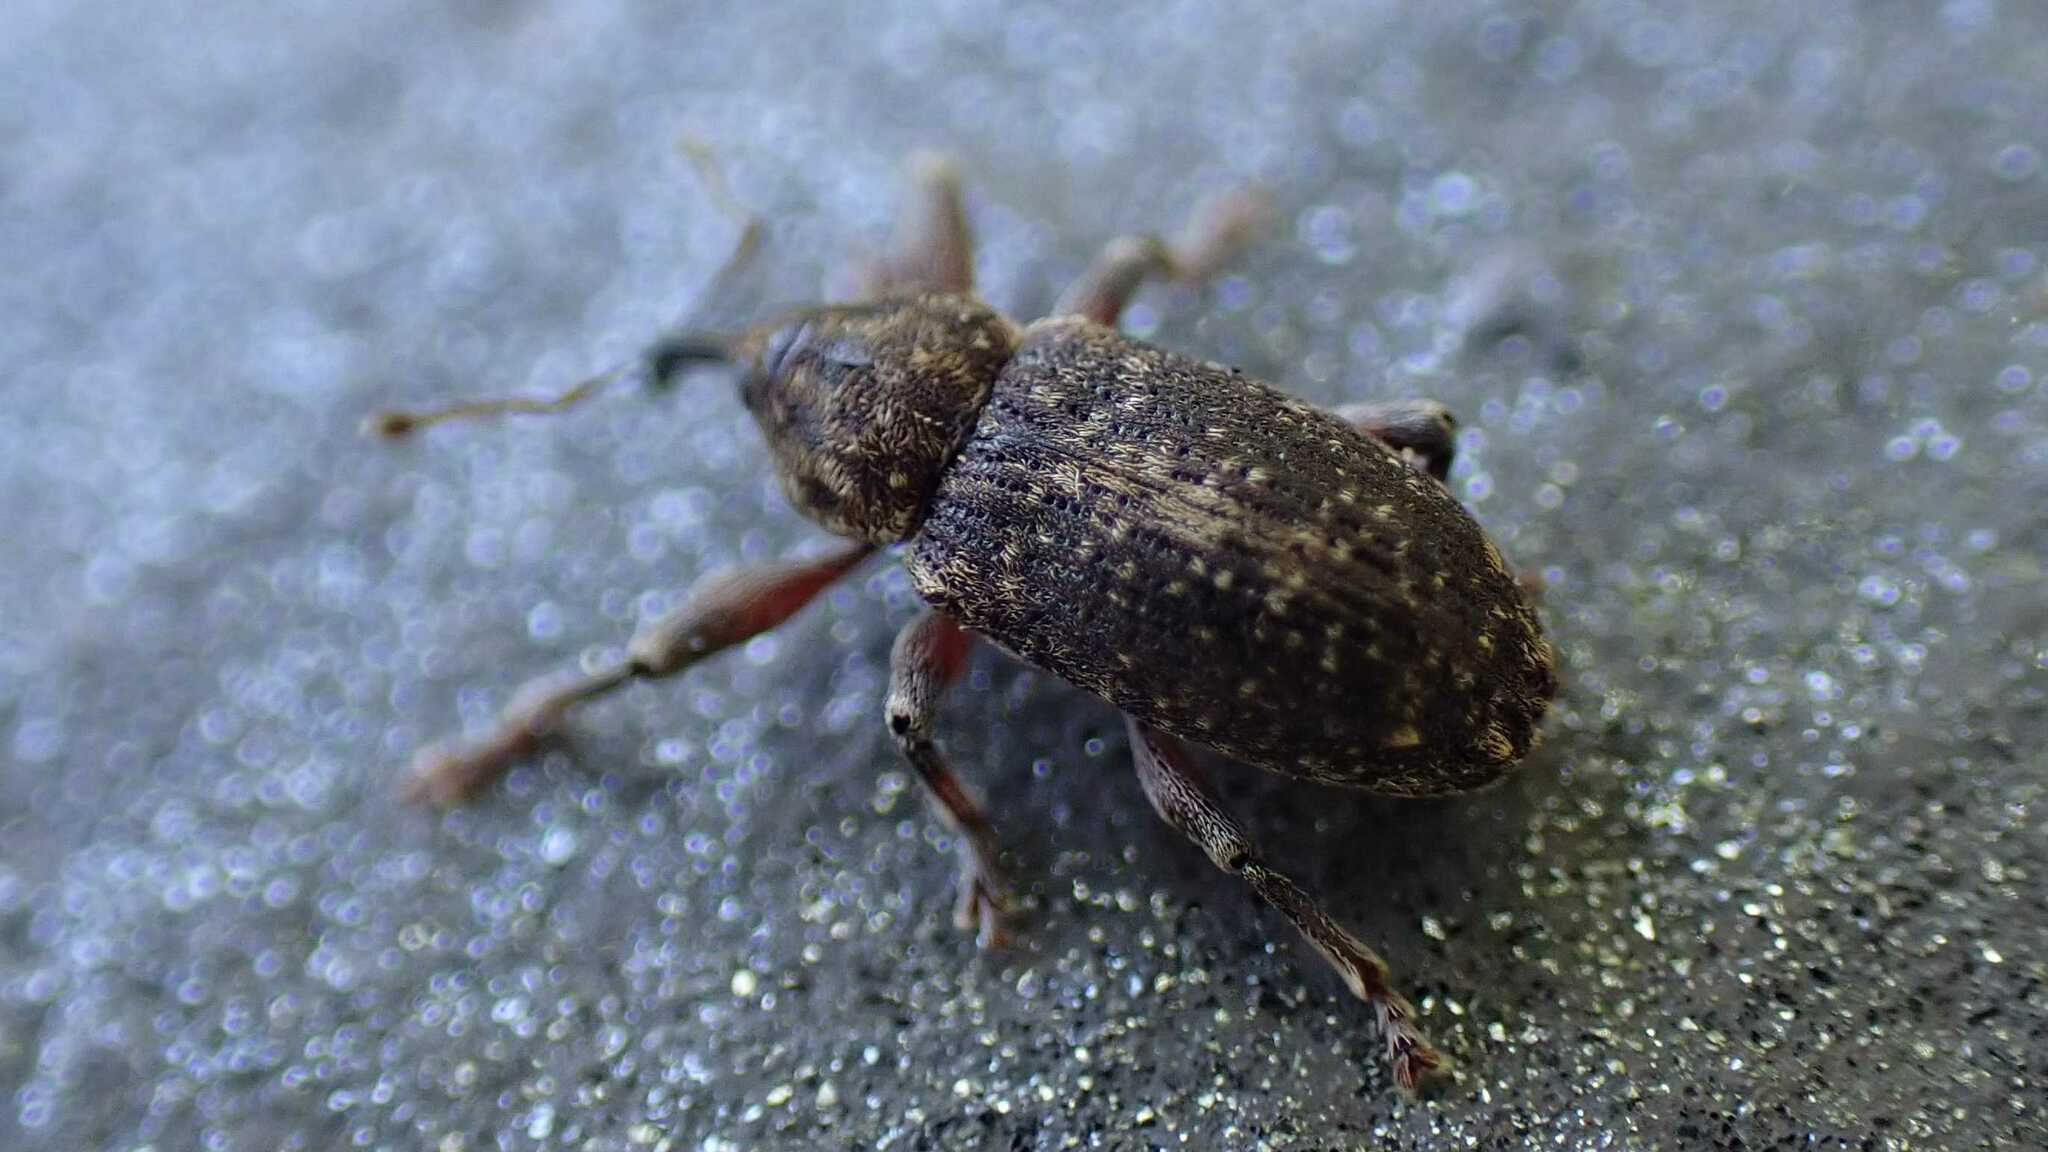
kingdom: Animalia
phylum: Arthropoda
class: Insecta
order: Coleoptera
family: Curculionidae
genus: Dorytomus
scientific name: Dorytomus tremulae
